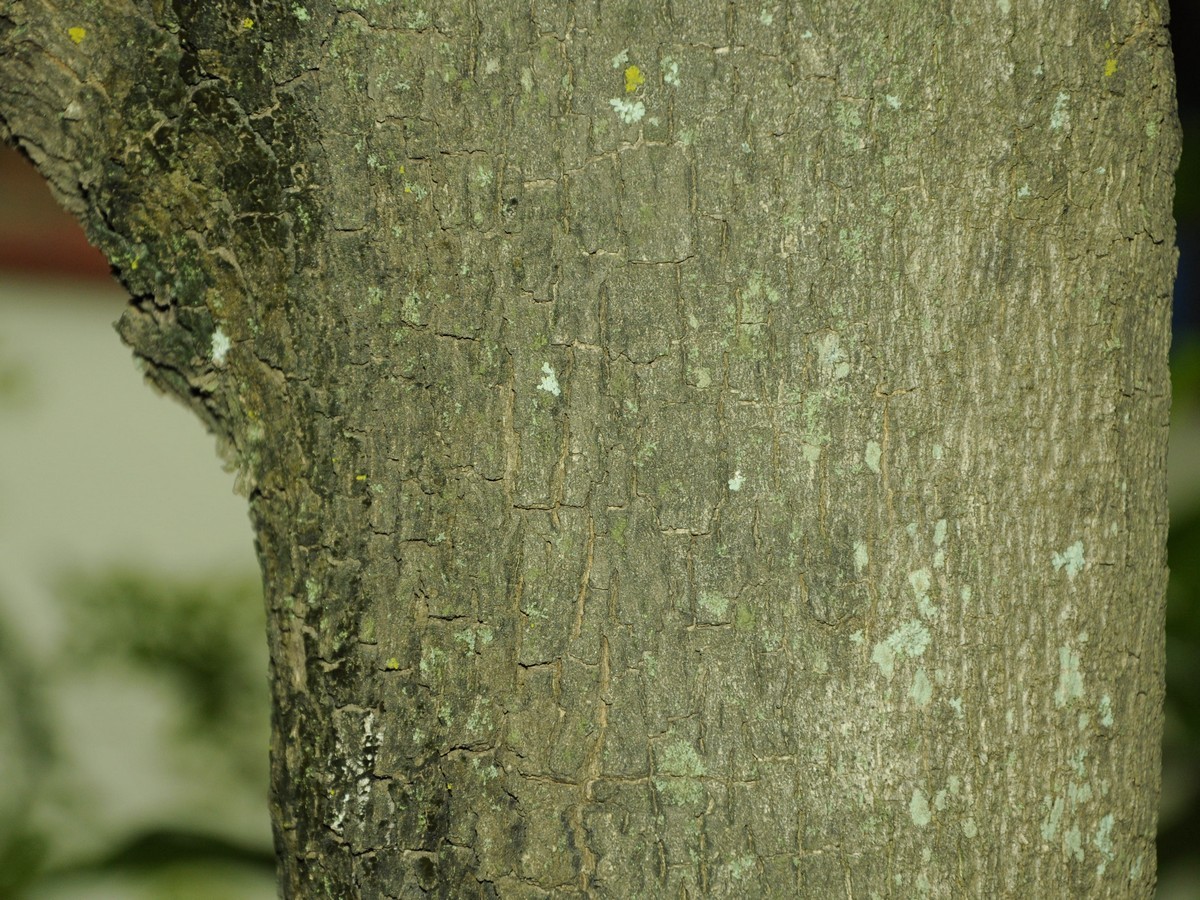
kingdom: Plantae
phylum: Tracheophyta
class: Magnoliopsida
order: Lamiales
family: Bignoniaceae
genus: Jacaranda
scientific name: Jacaranda mimosifolia
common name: Black poui
